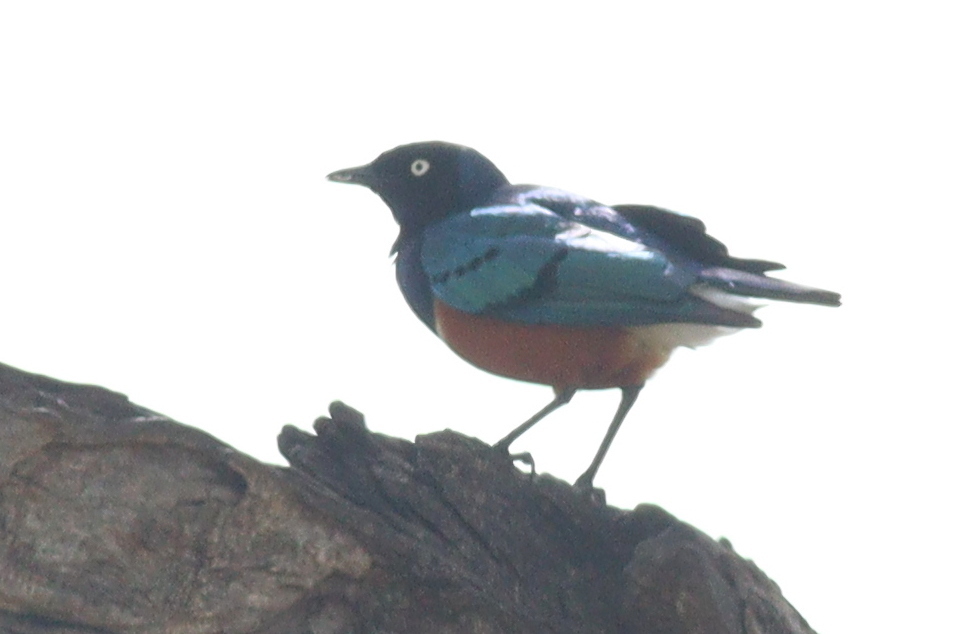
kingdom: Animalia
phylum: Chordata
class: Aves
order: Passeriformes
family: Sturnidae
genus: Lamprotornis
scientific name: Lamprotornis superbus
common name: Superb starling
